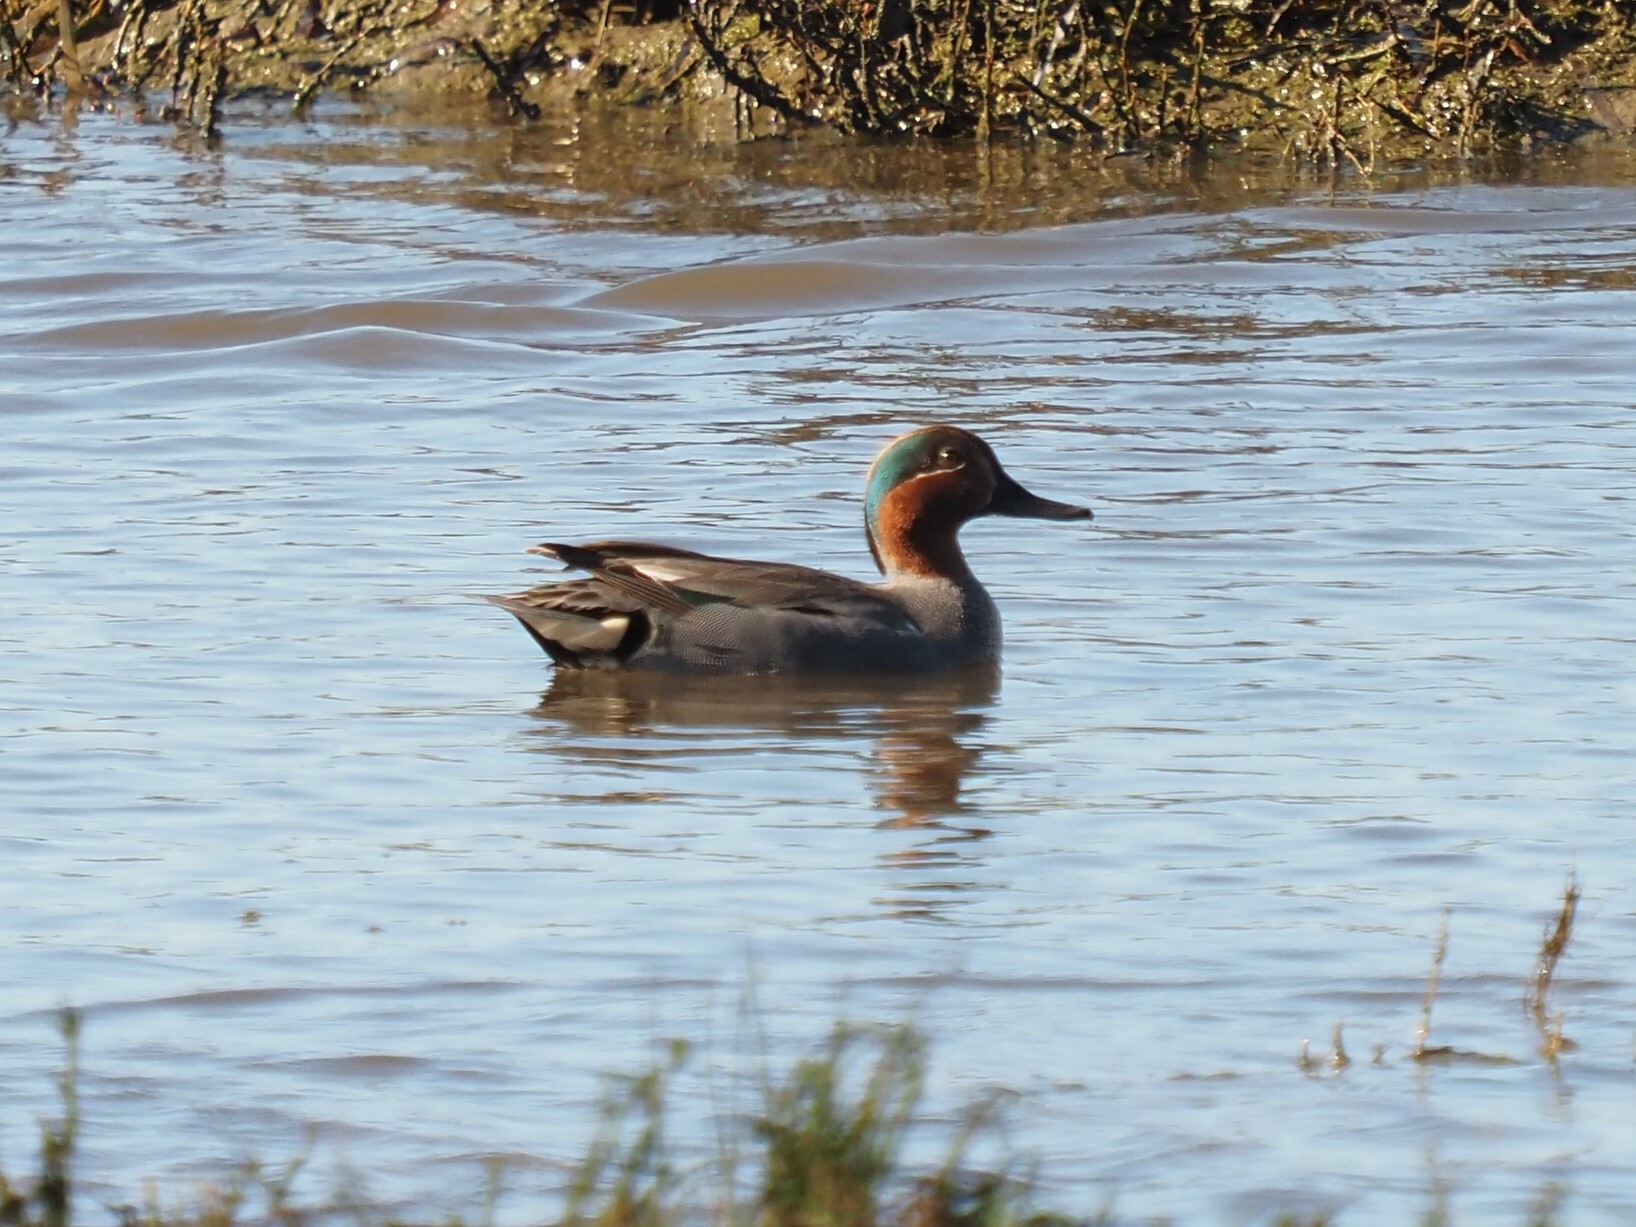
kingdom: Animalia
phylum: Chordata
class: Aves
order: Anseriformes
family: Anatidae
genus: Anas
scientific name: Anas crecca
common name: Eurasian teal
